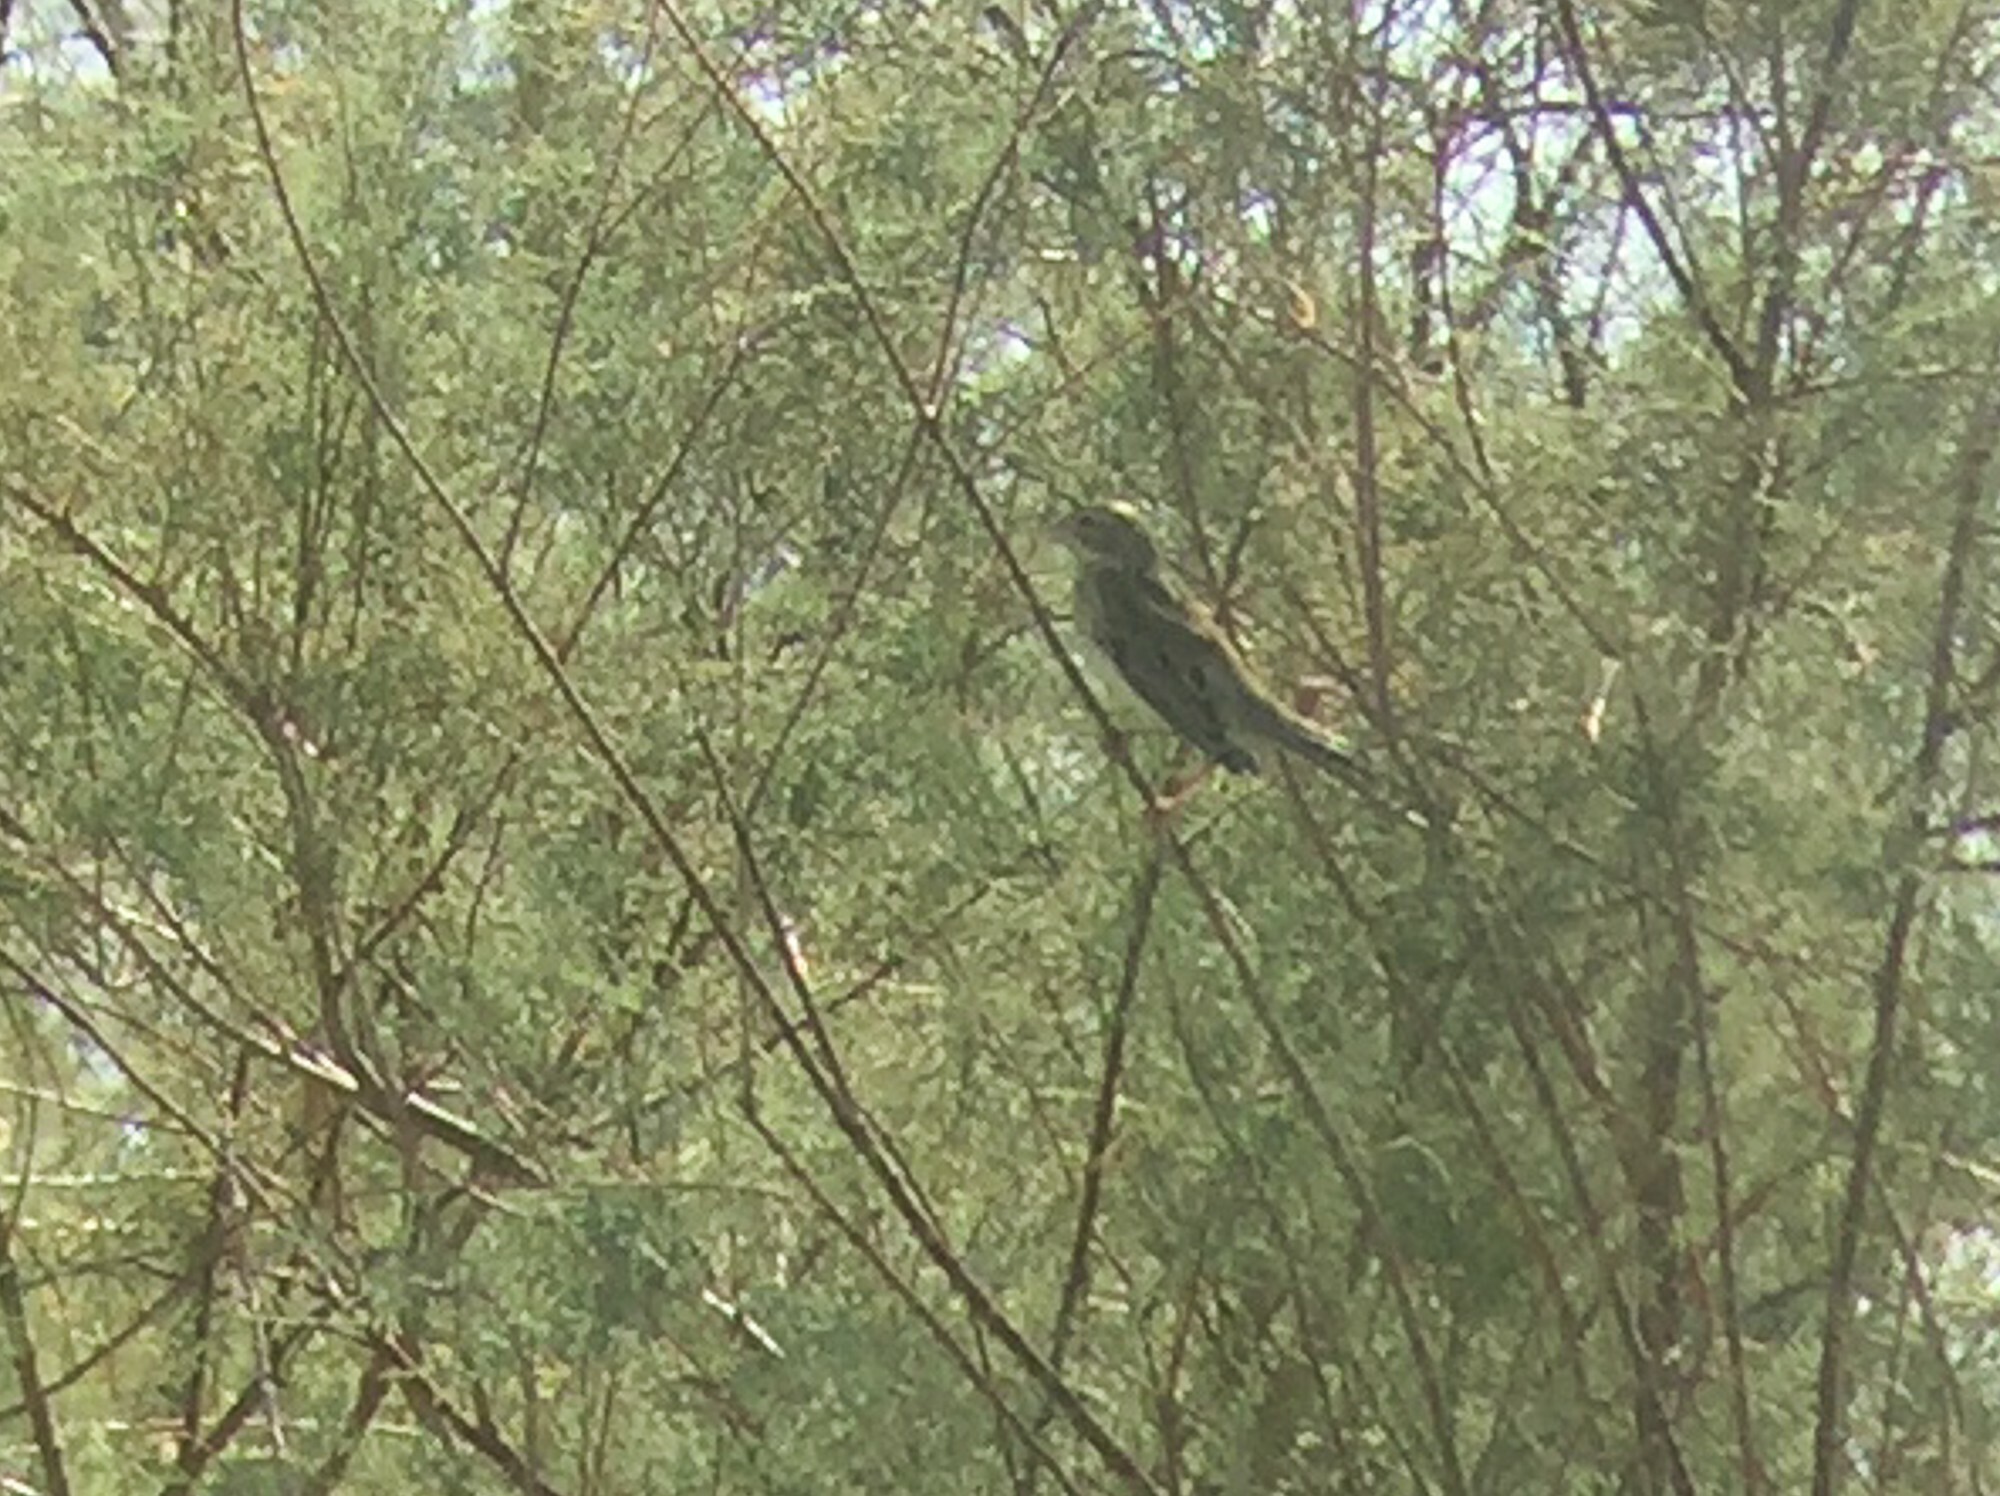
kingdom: Animalia
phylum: Chordata
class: Aves
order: Passeriformes
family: Cardinalidae
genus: Spiza
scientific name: Spiza americana
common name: Dickcissel
